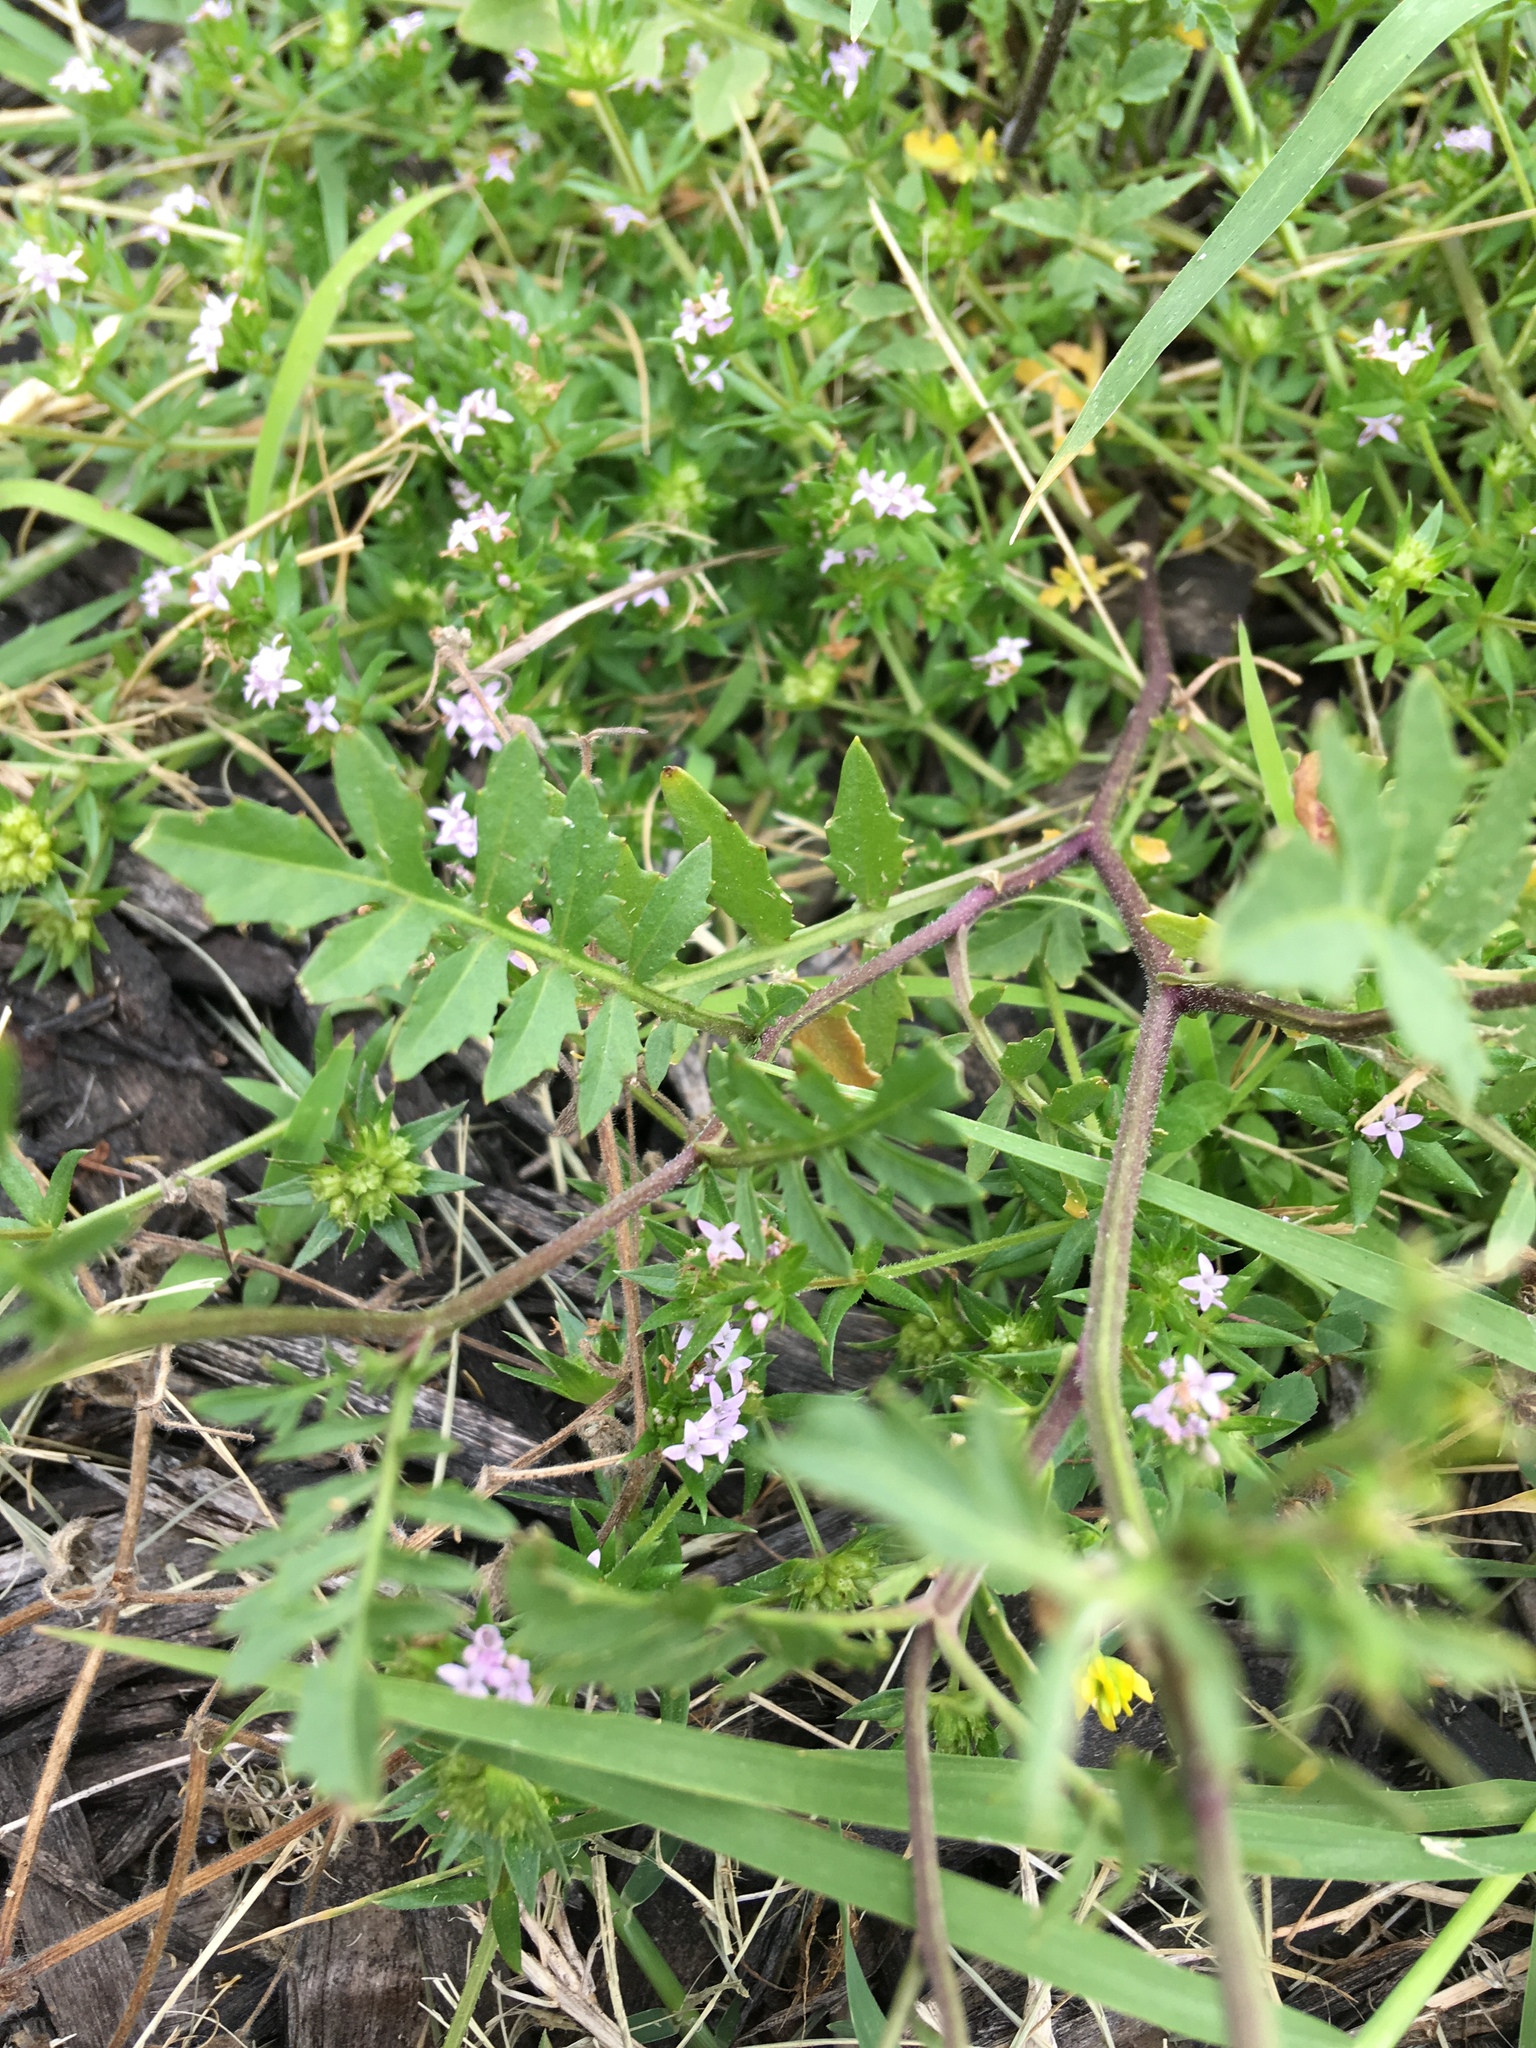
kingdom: Plantae
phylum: Tracheophyta
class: Magnoliopsida
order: Brassicales
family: Brassicaceae
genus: Rorippa
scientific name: Rorippa sylvestris
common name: Creeping yellowcress
